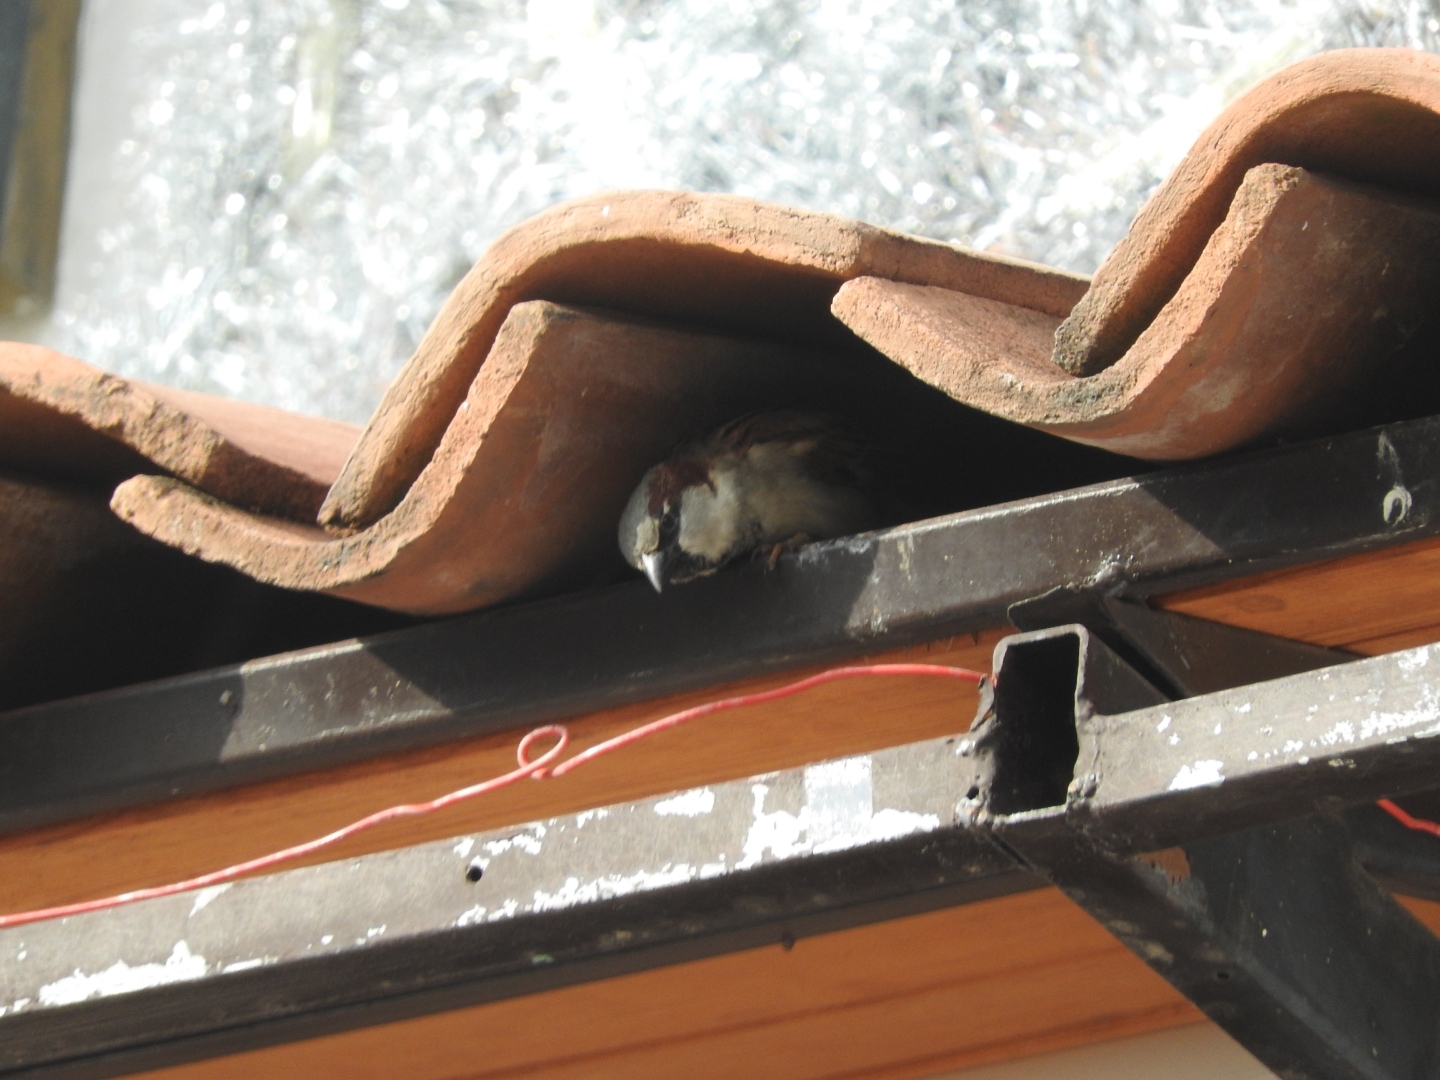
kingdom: Animalia
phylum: Chordata
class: Aves
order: Passeriformes
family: Passeridae
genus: Passer
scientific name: Passer domesticus
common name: House sparrow
